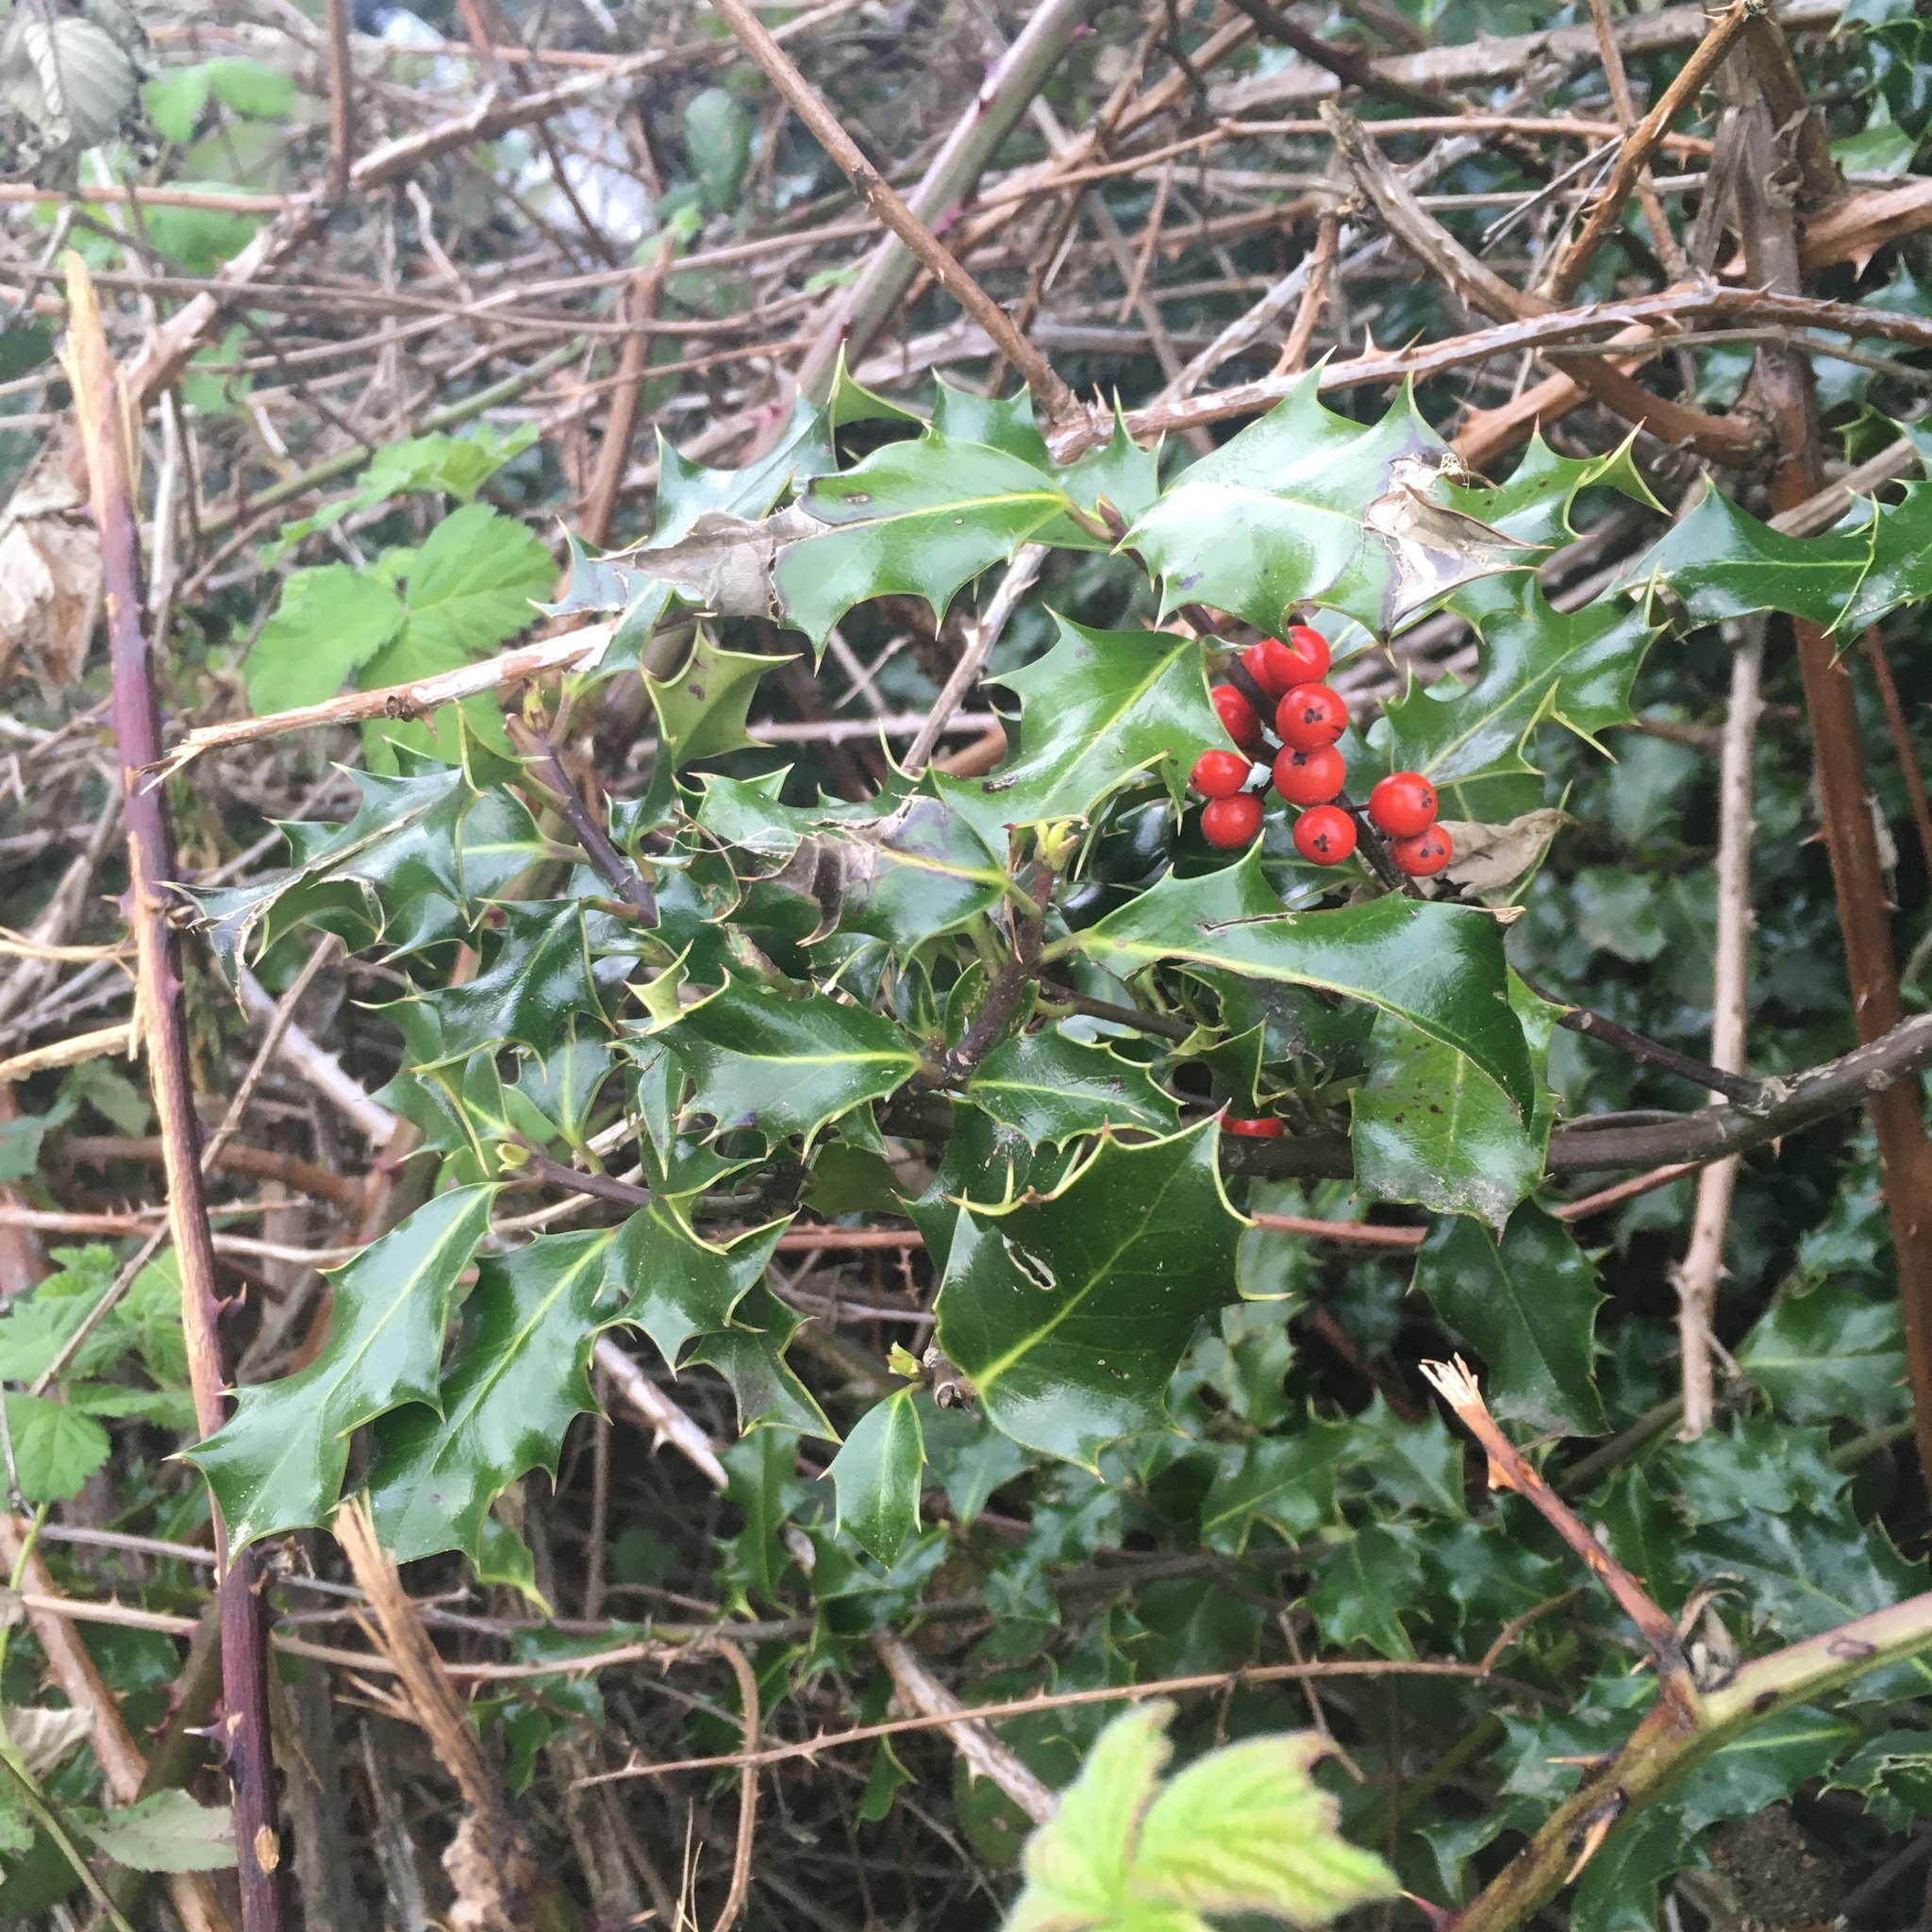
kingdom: Plantae
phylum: Tracheophyta
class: Magnoliopsida
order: Aquifoliales
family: Aquifoliaceae
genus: Ilex
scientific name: Ilex aquifolium
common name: English holly
